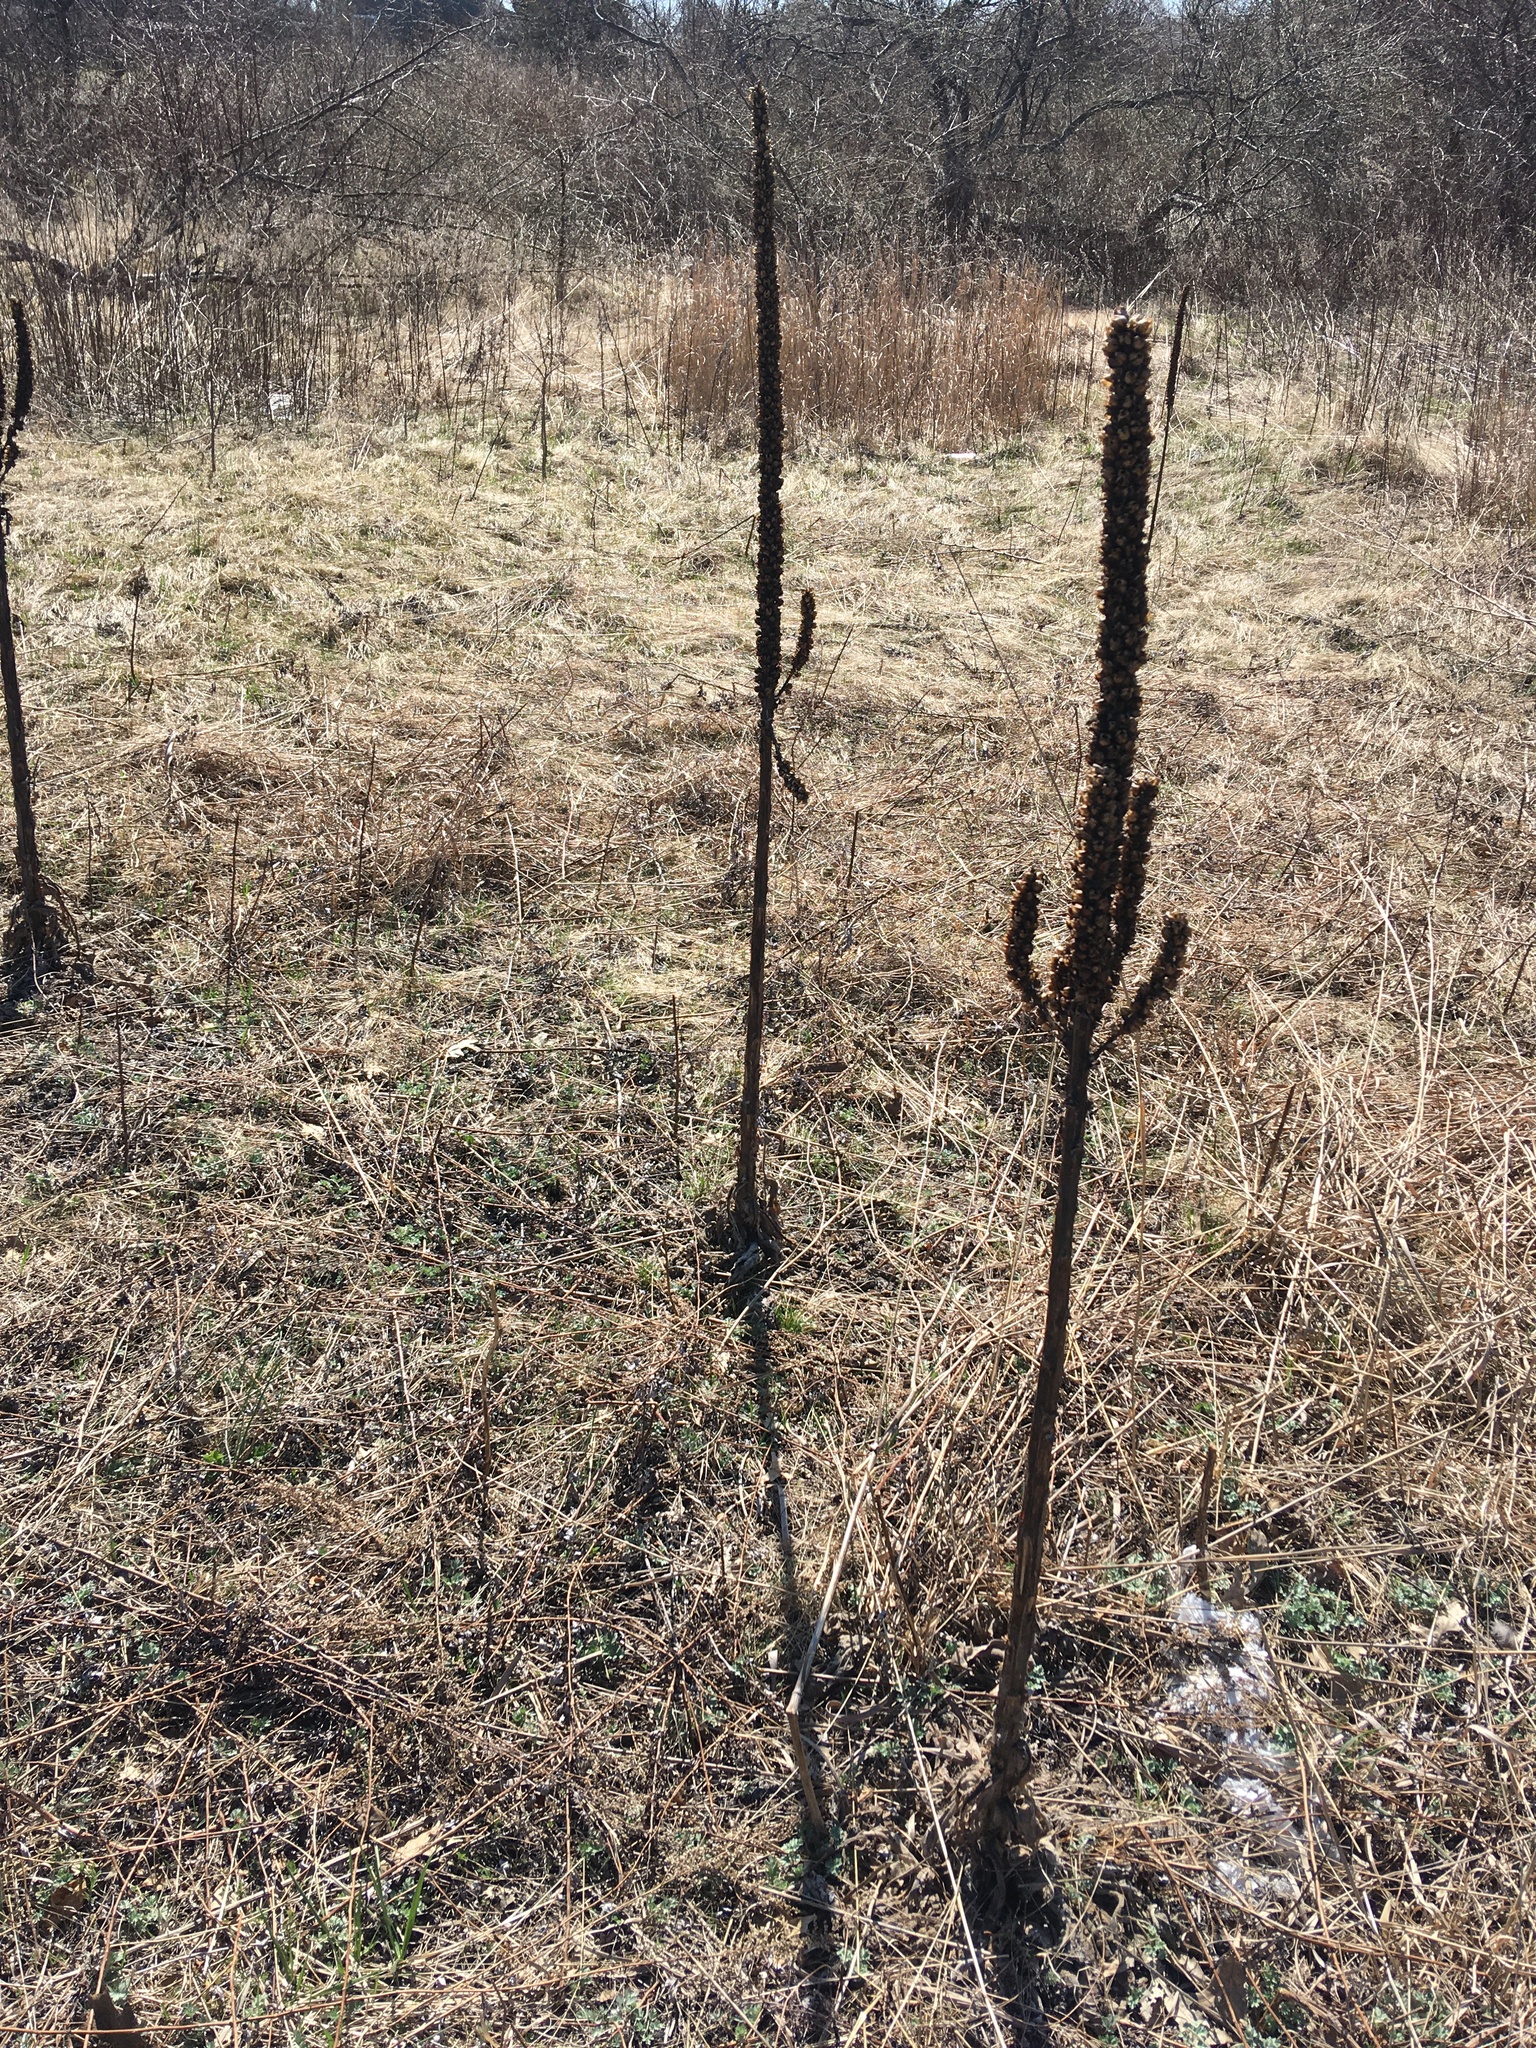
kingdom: Plantae
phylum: Tracheophyta
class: Magnoliopsida
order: Lamiales
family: Scrophulariaceae
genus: Verbascum
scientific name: Verbascum thapsus
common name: Common mullein
